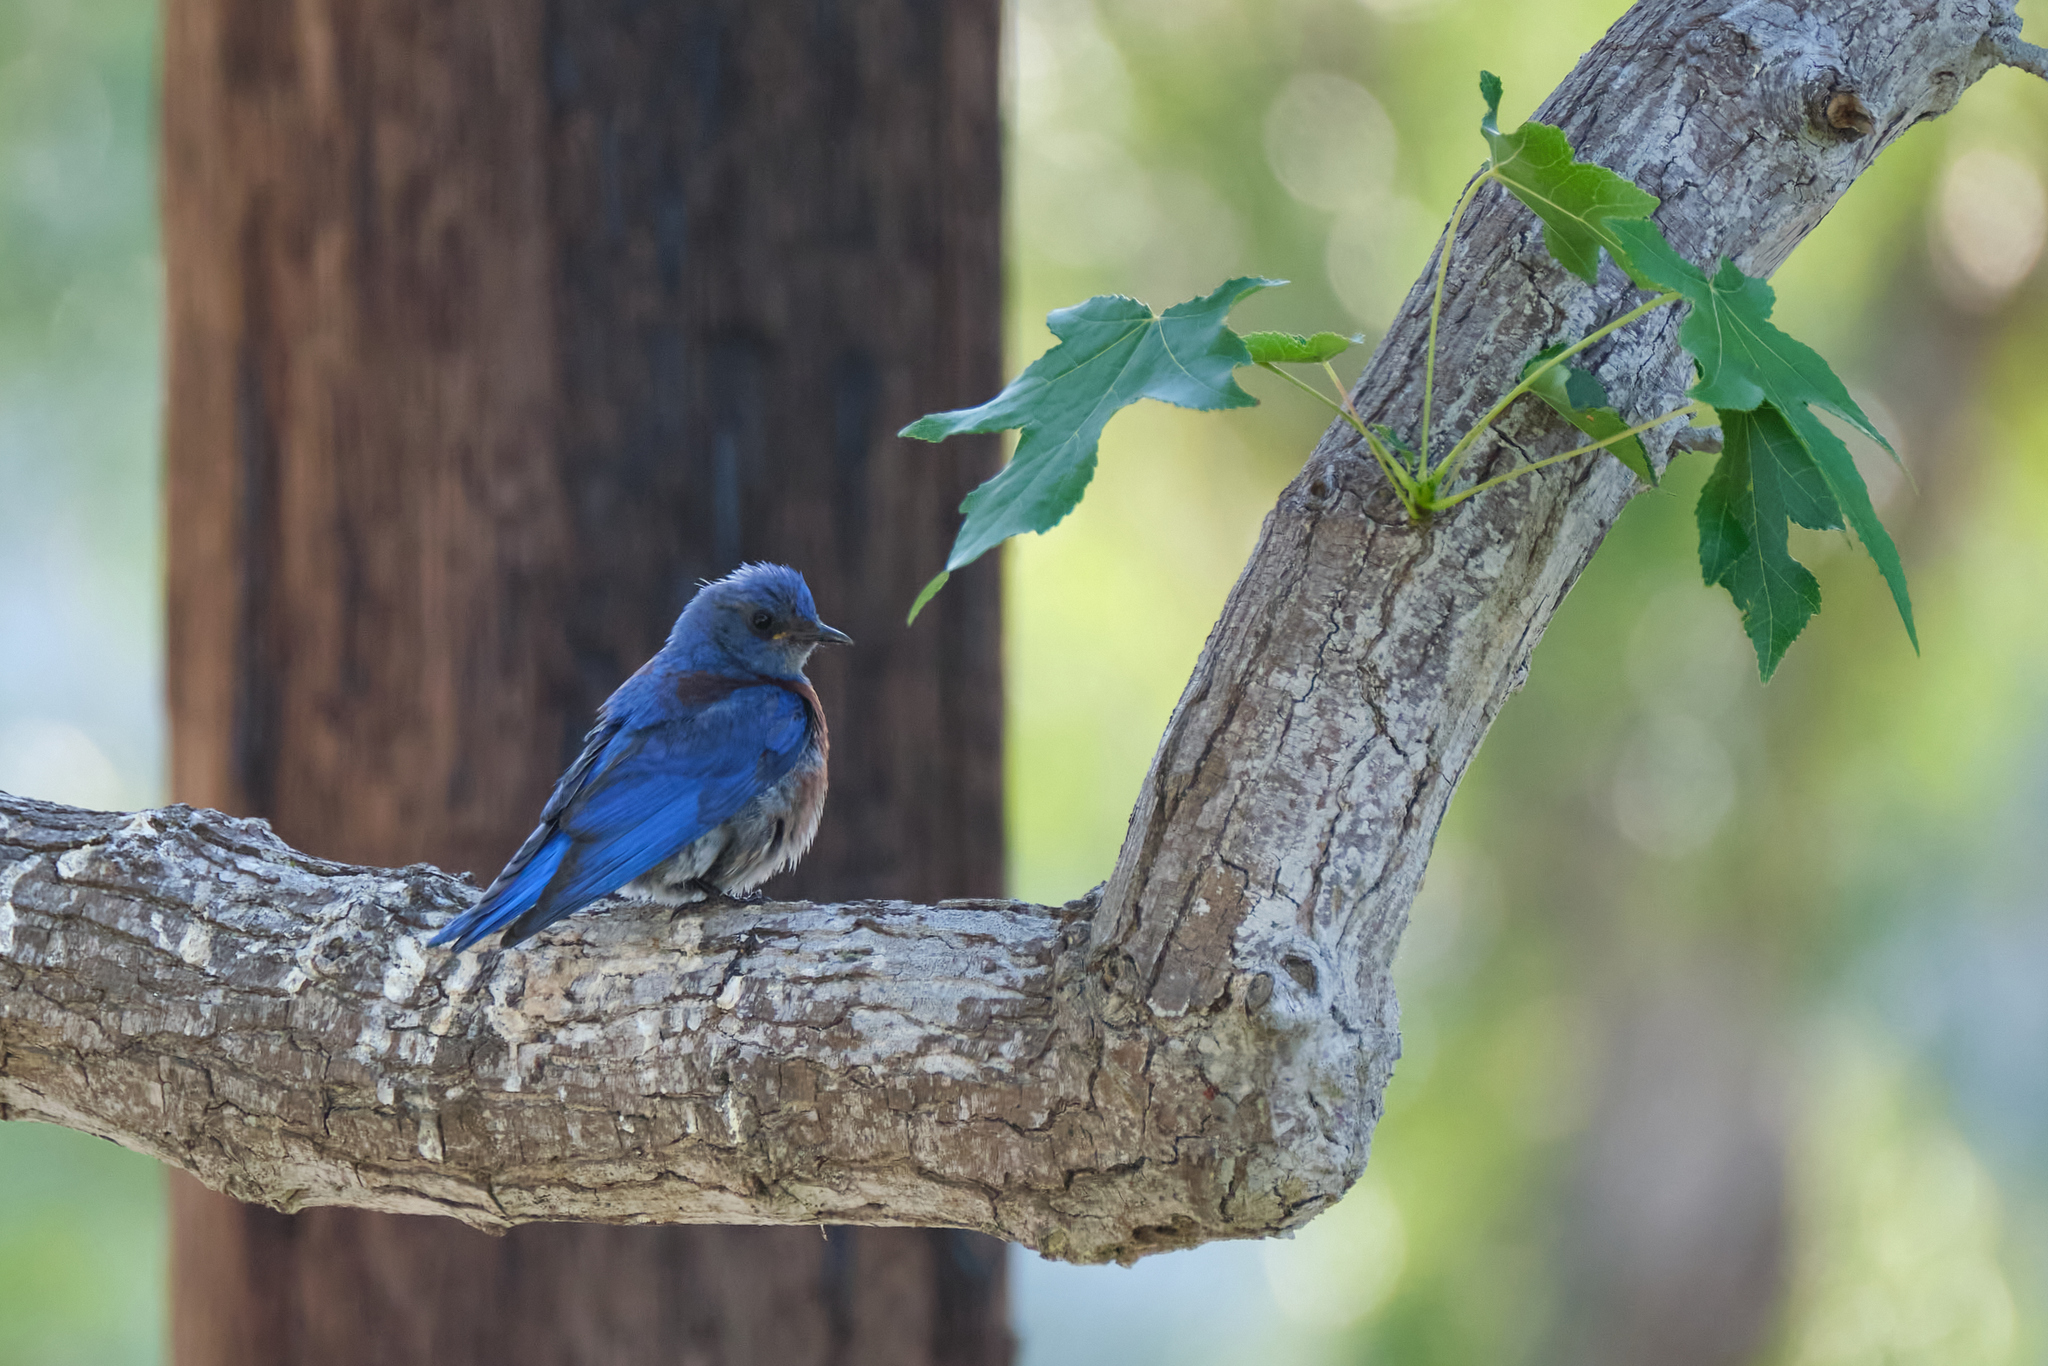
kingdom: Animalia
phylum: Chordata
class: Aves
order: Passeriformes
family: Turdidae
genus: Sialia
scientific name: Sialia mexicana
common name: Western bluebird
